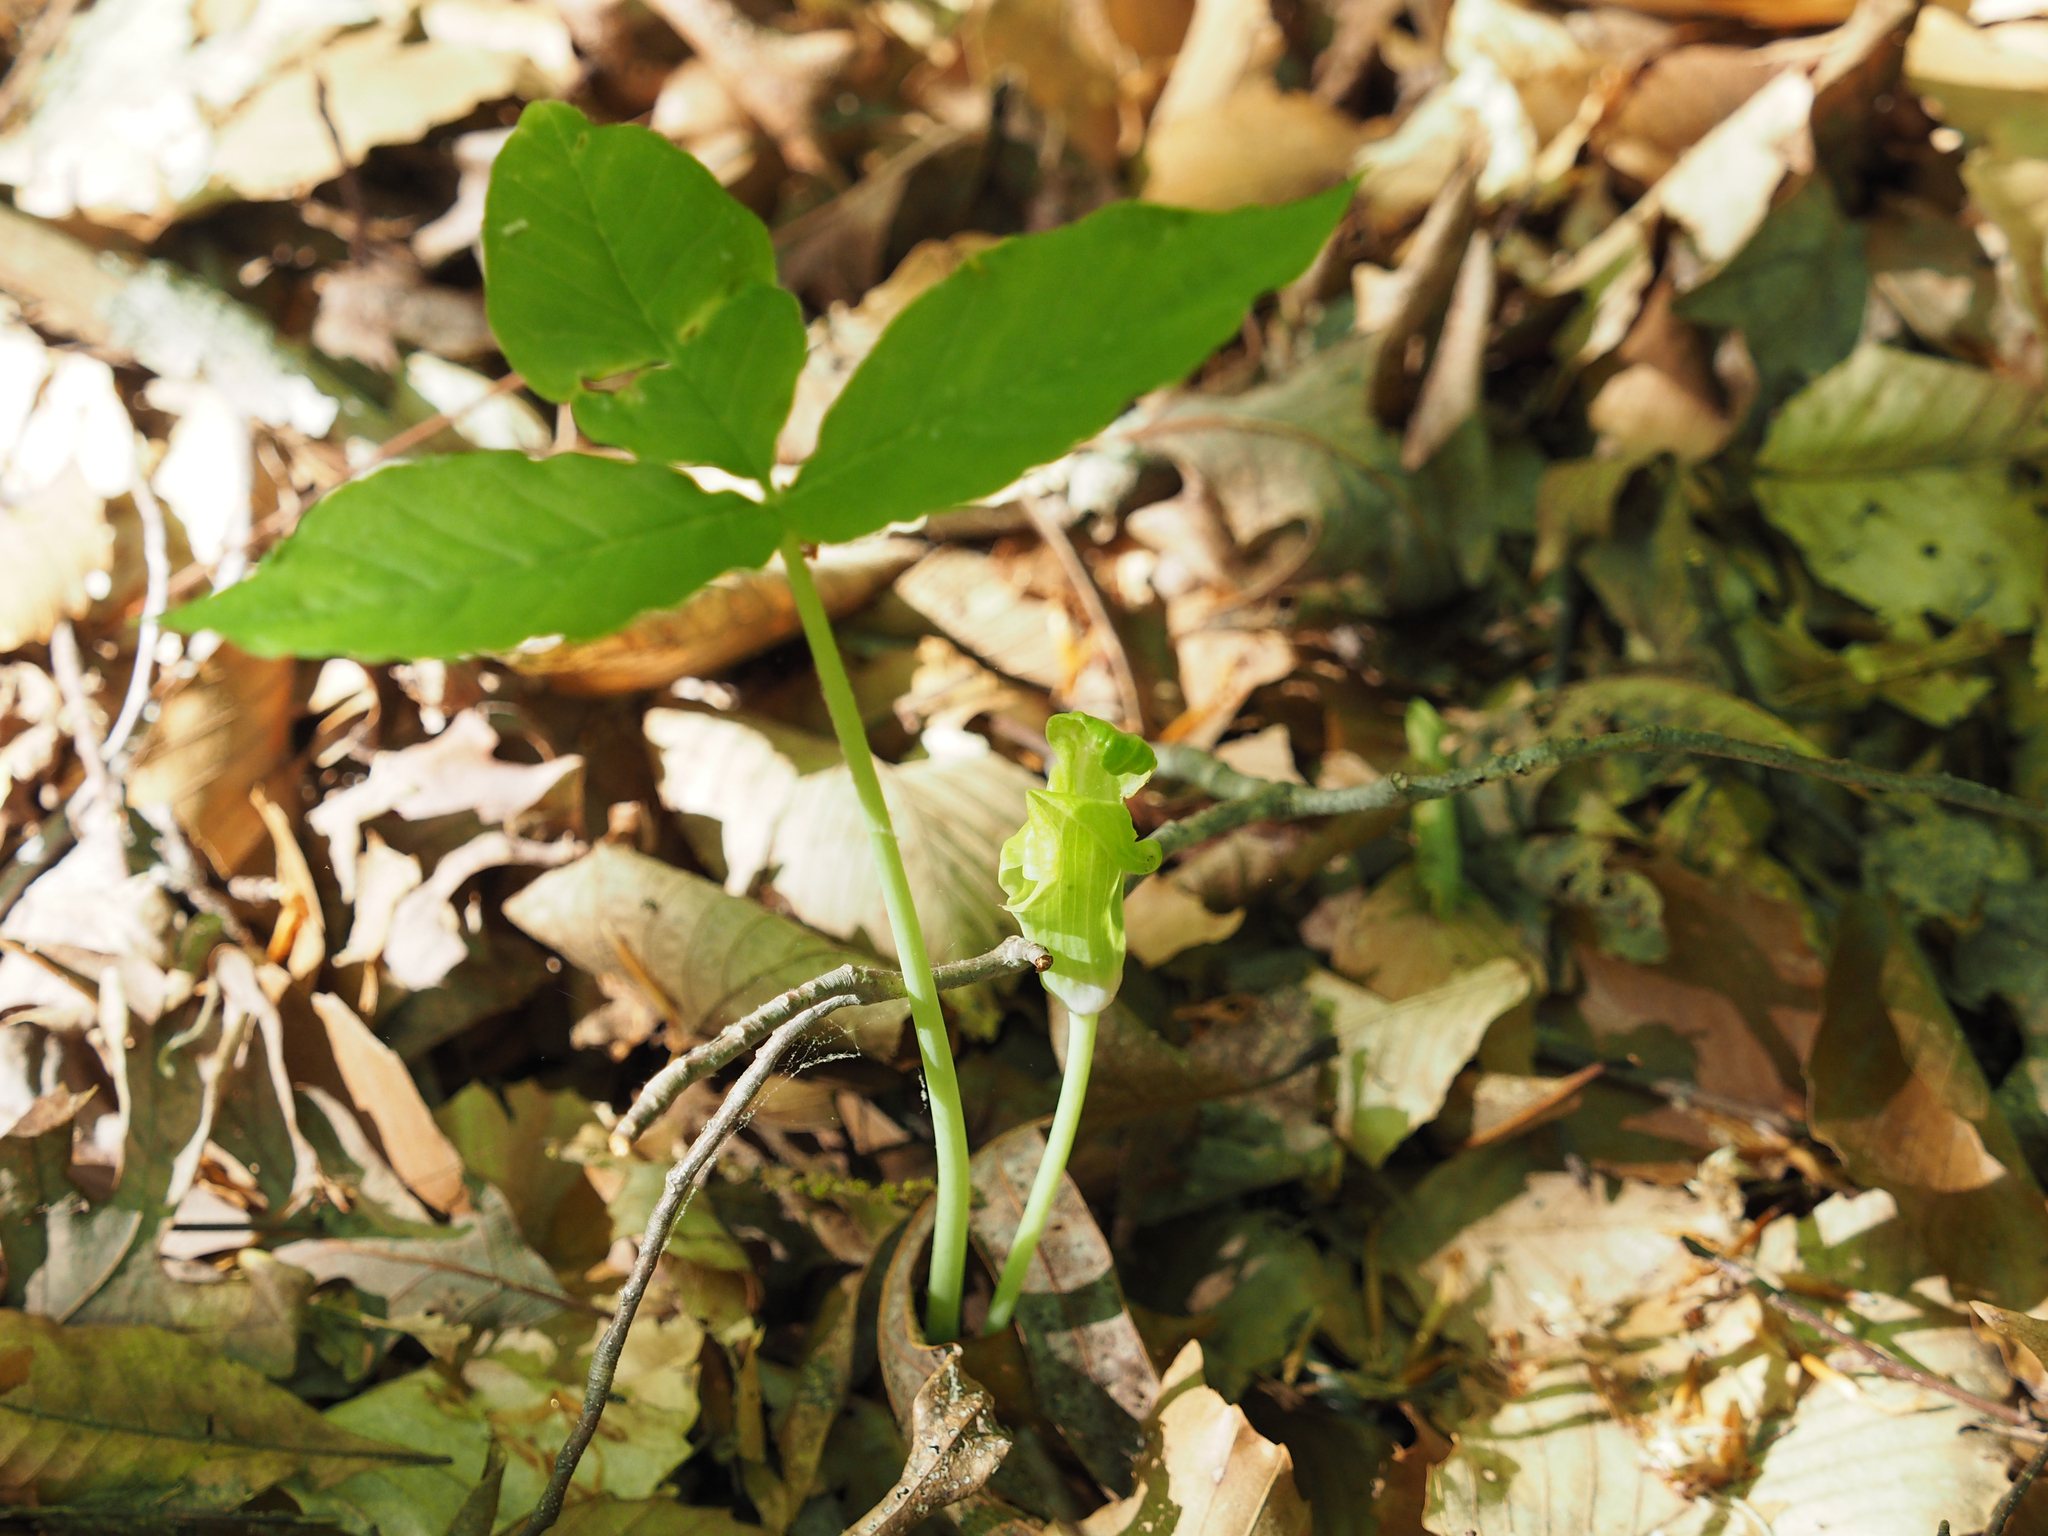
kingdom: Plantae
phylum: Tracheophyta
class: Liliopsida
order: Alismatales
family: Araceae
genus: Arisaema
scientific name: Arisaema triphyllum
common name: Jack-in-the-pulpit
